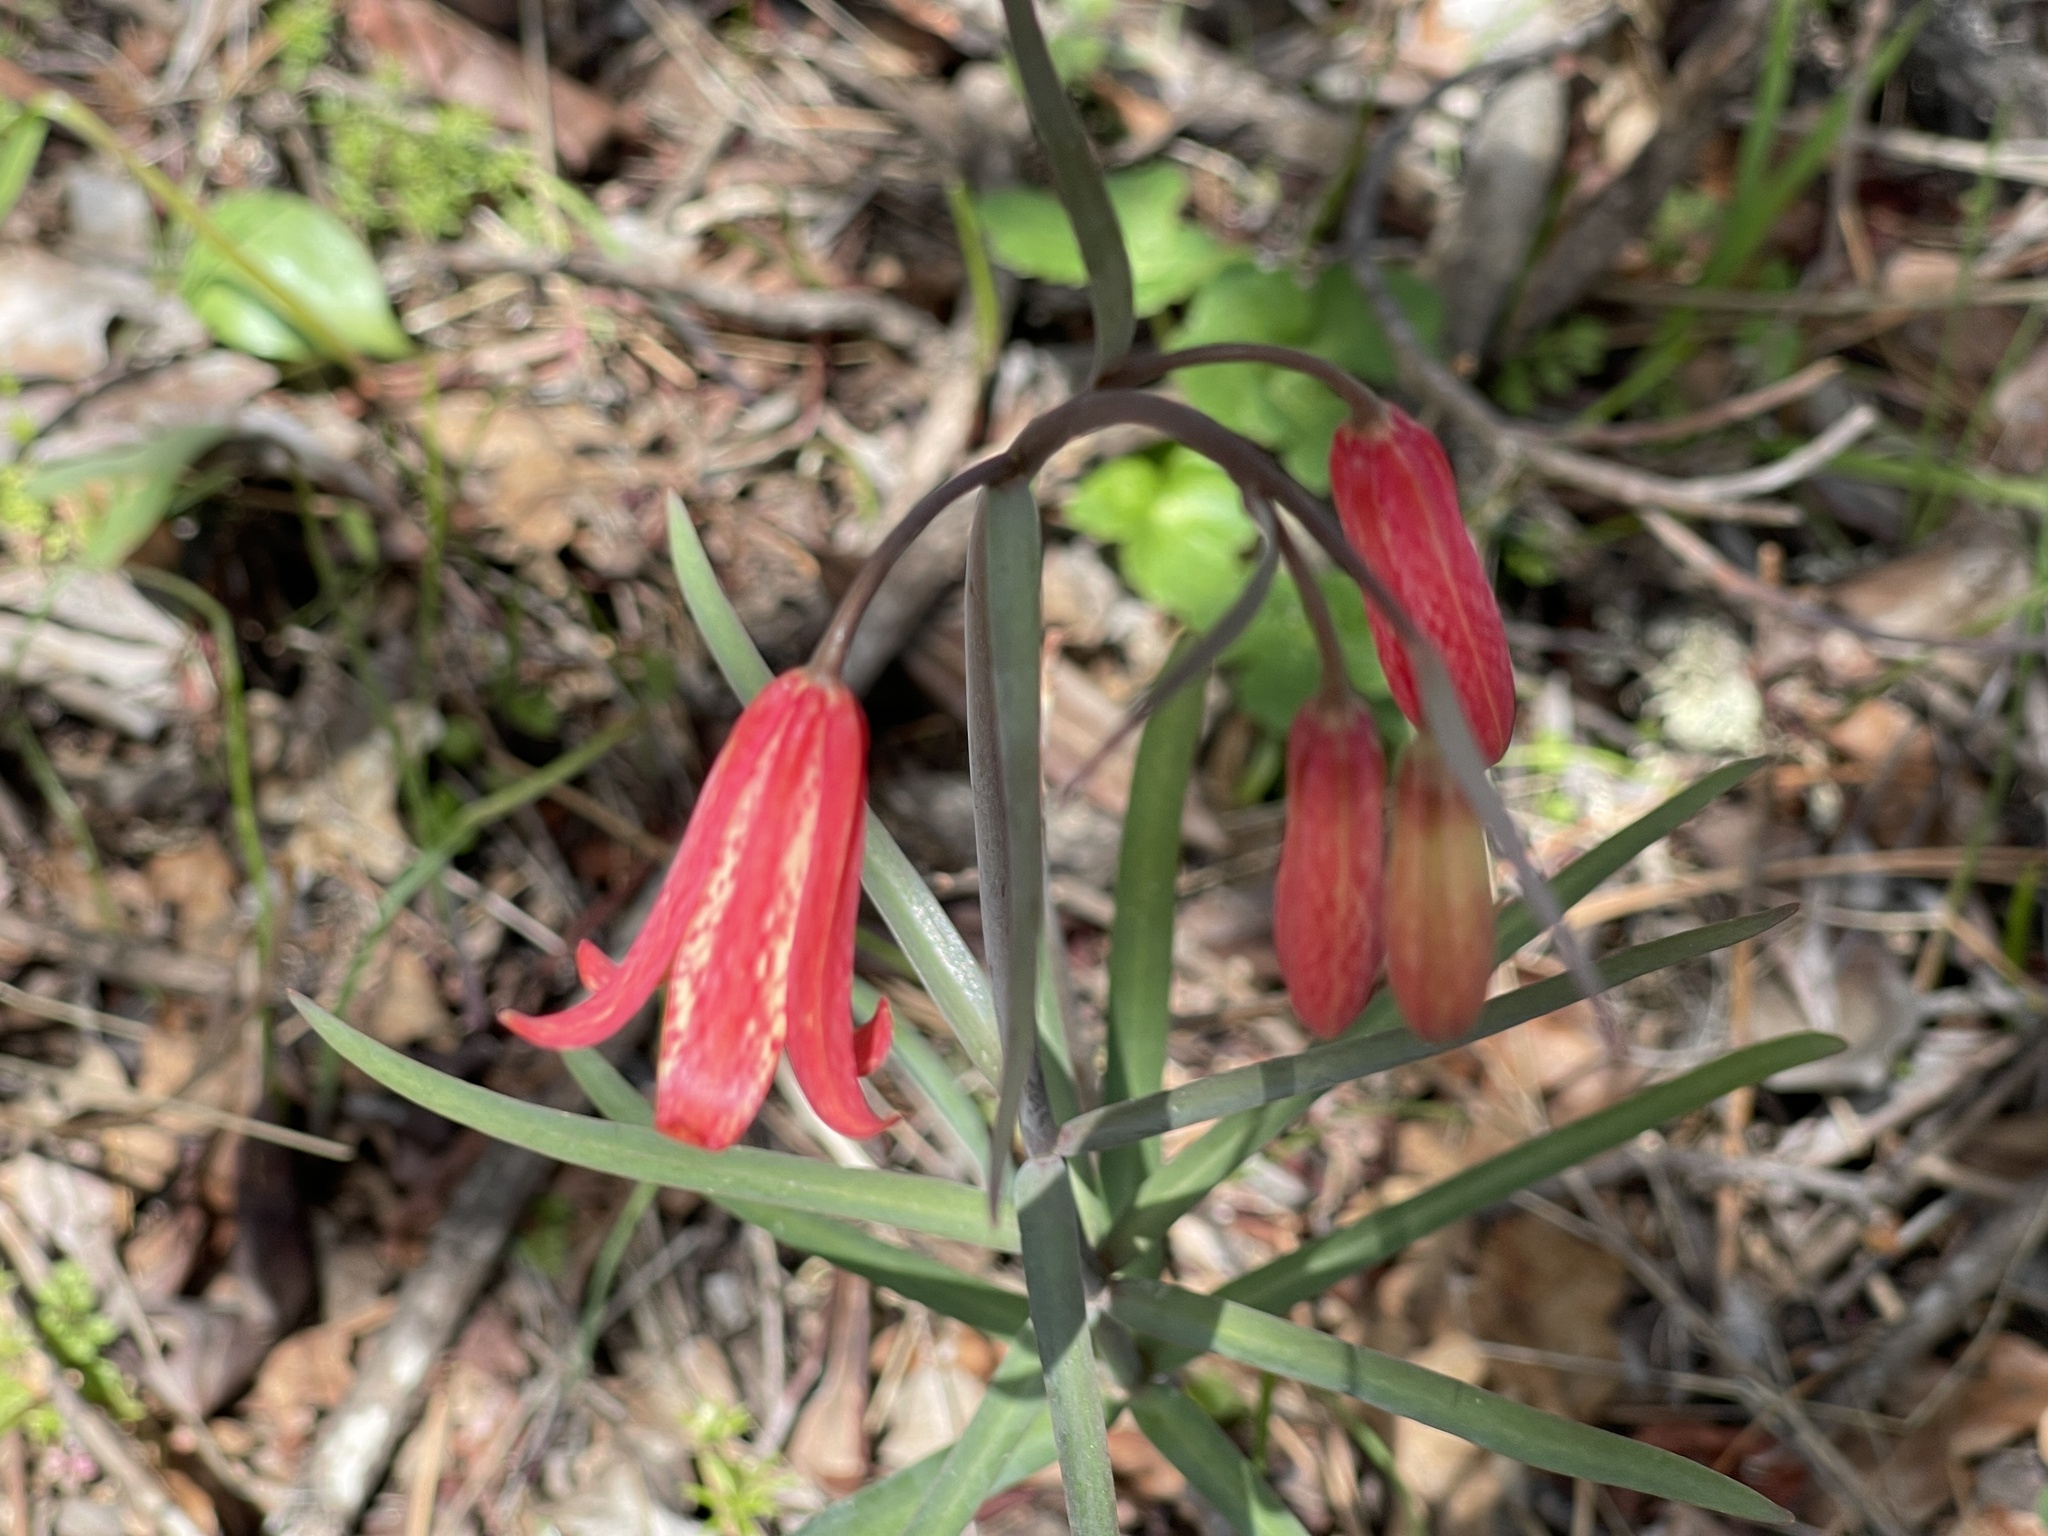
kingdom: Plantae
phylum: Tracheophyta
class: Liliopsida
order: Liliales
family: Liliaceae
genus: Fritillaria
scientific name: Fritillaria recurva
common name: Scarlet fritillary
